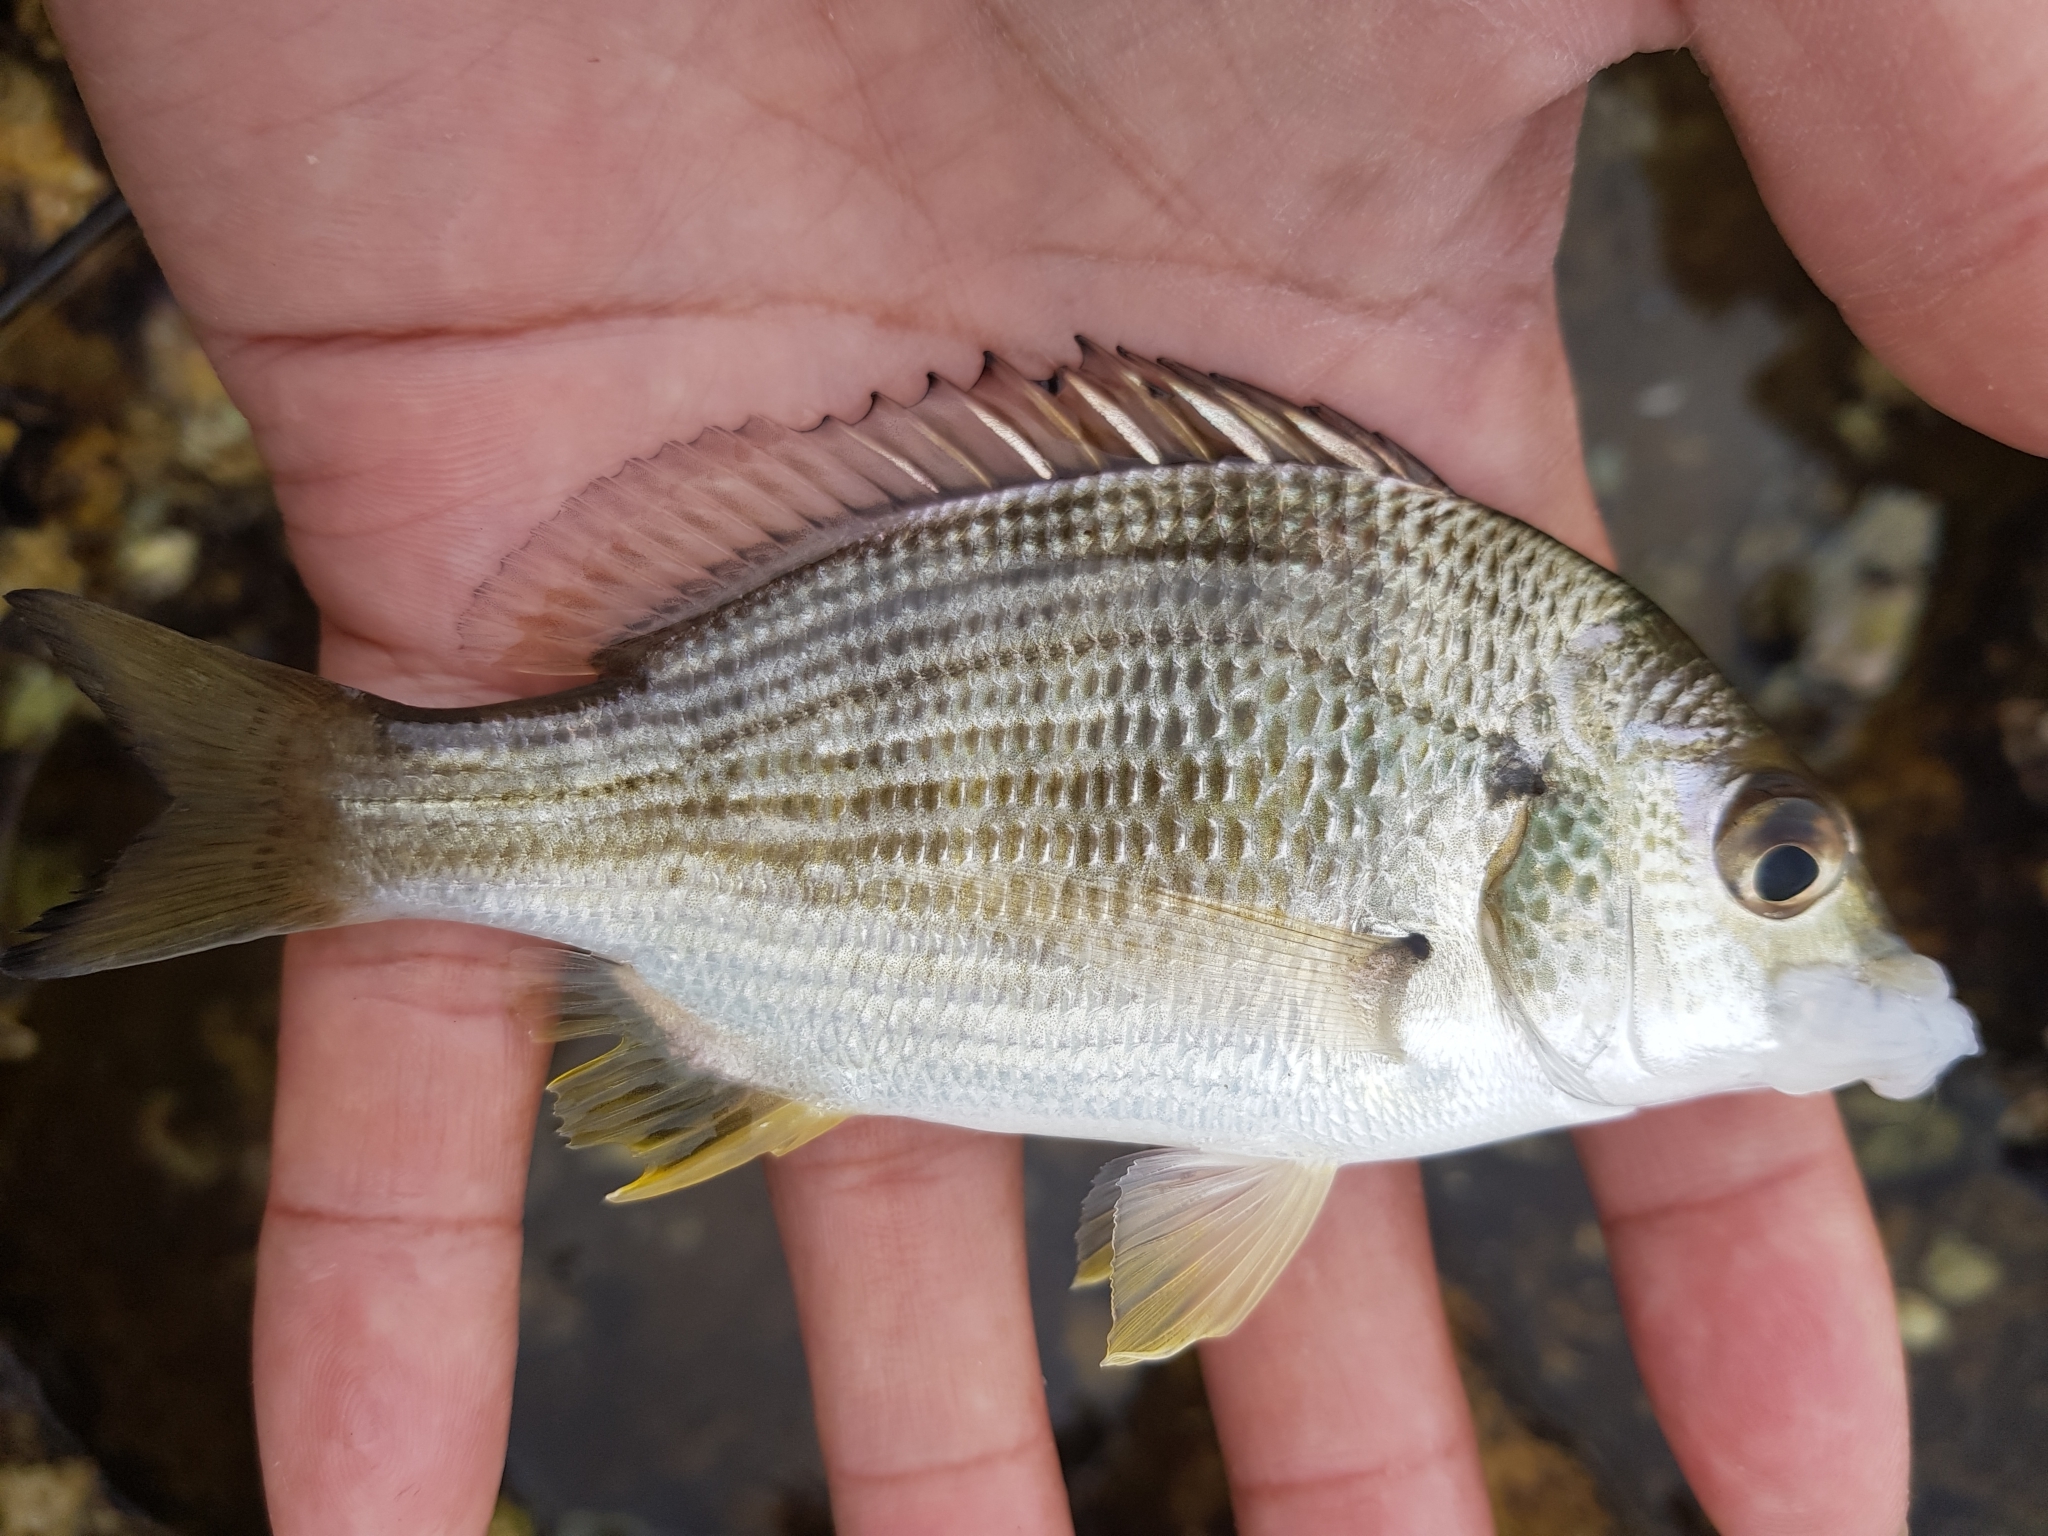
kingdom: Animalia
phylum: Chordata
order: Perciformes
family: Sparidae
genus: Acanthopagrus
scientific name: Acanthopagrus australis
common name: Surf bream
